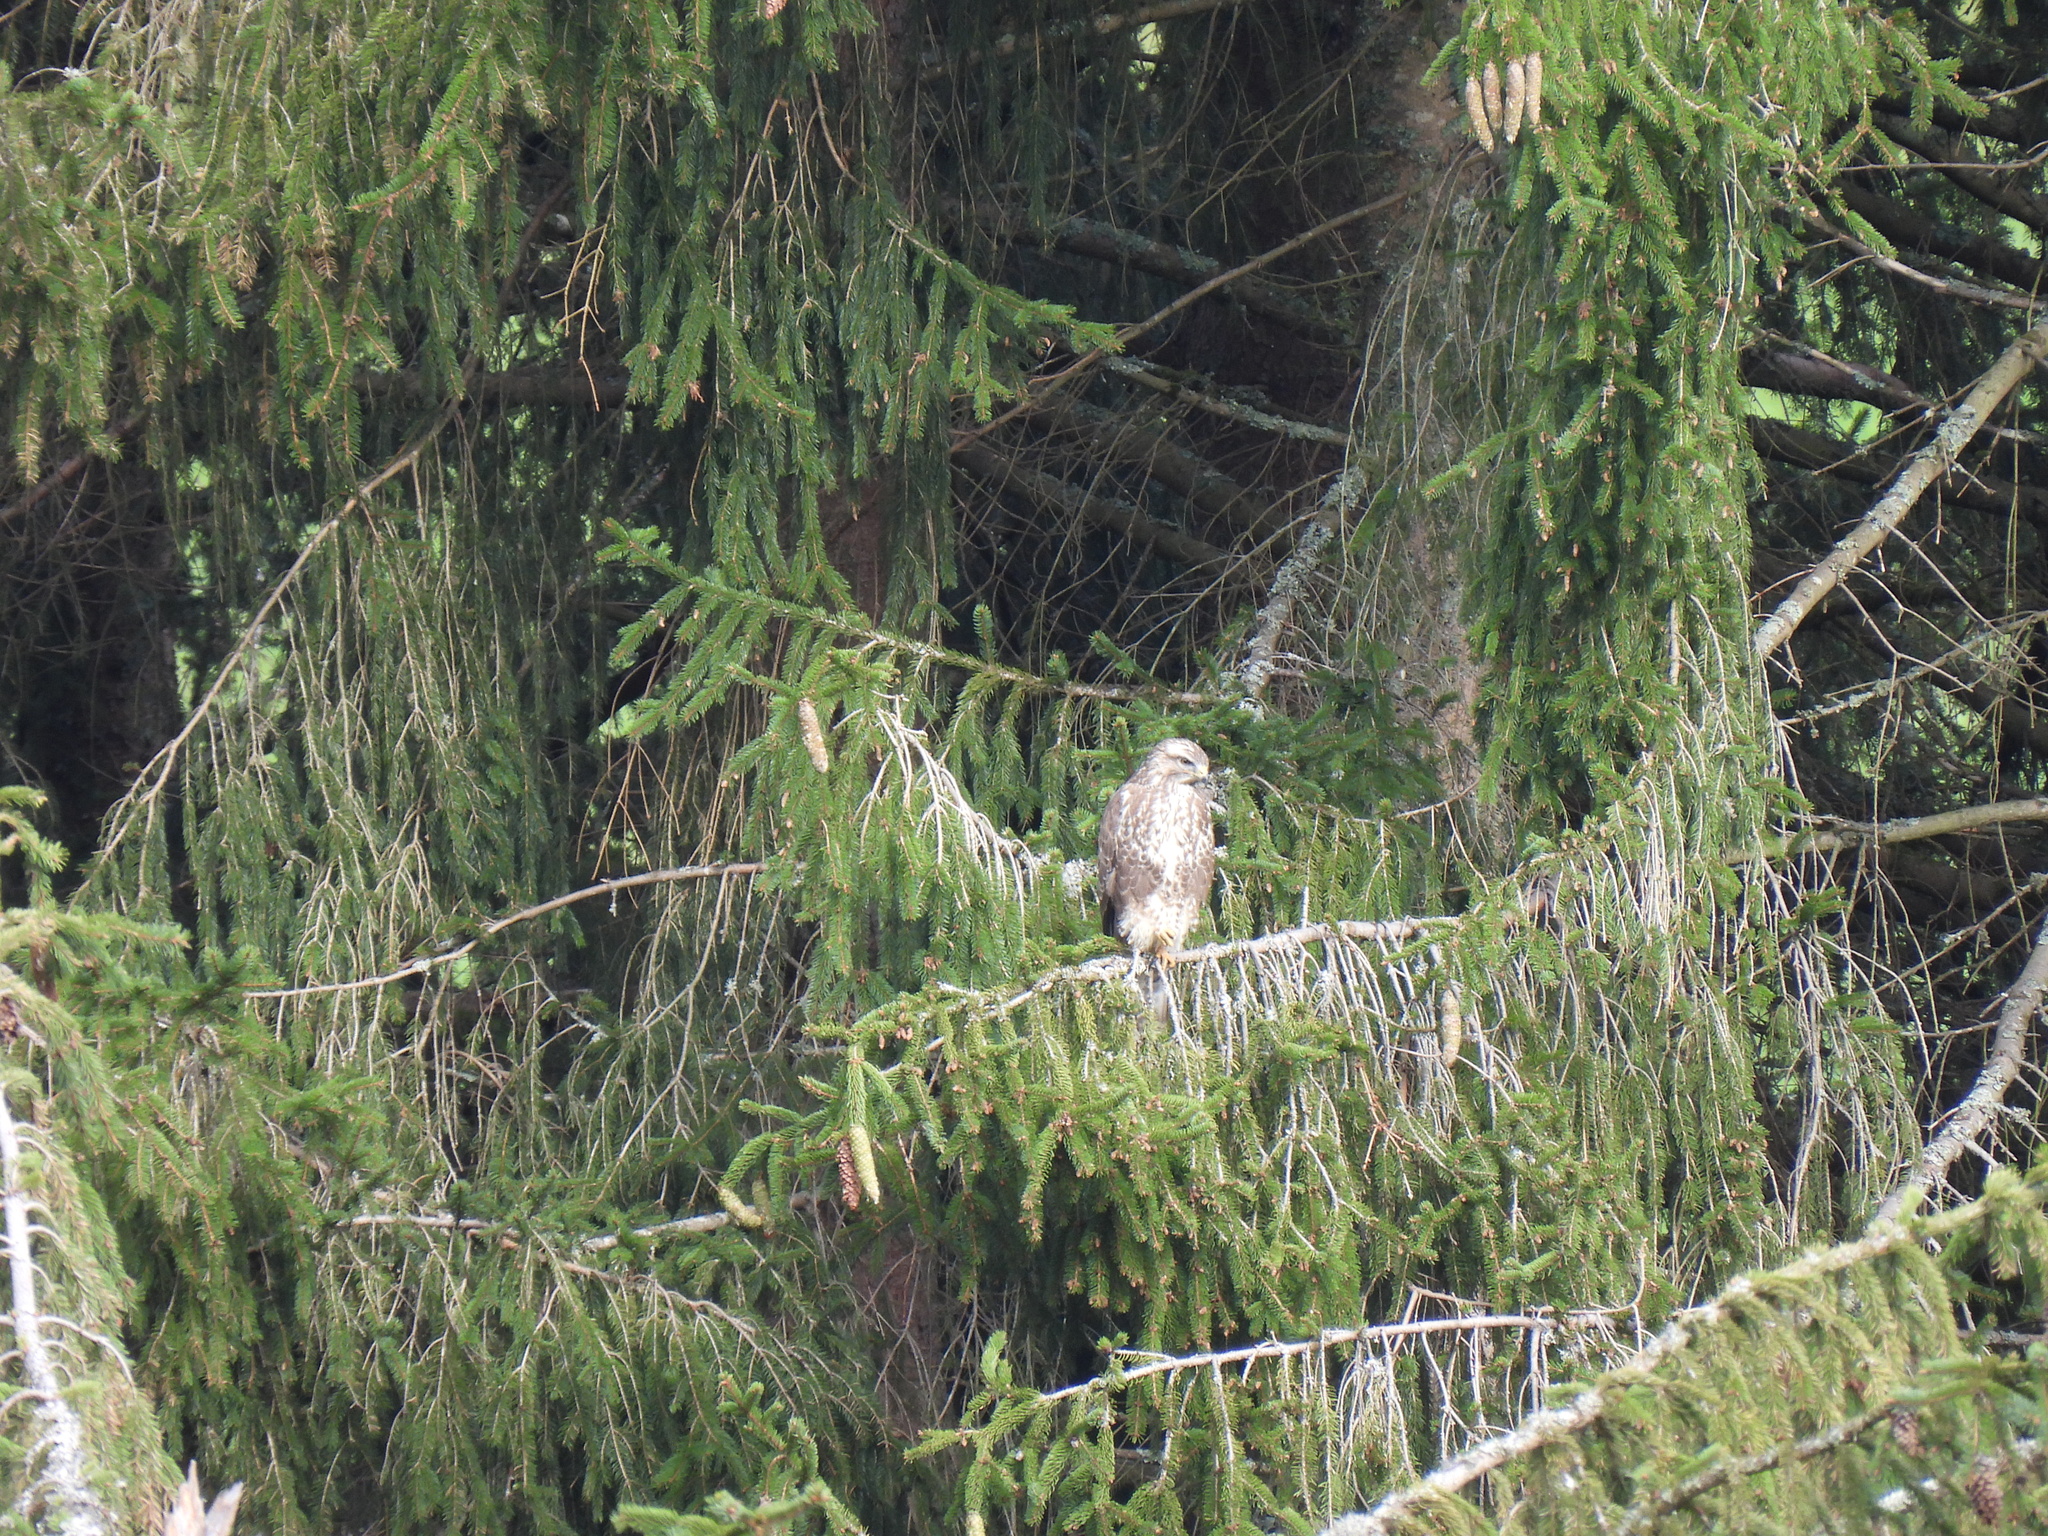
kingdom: Animalia
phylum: Chordata
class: Aves
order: Accipitriformes
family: Accipitridae
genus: Buteo
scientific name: Buteo buteo
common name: Common buzzard
